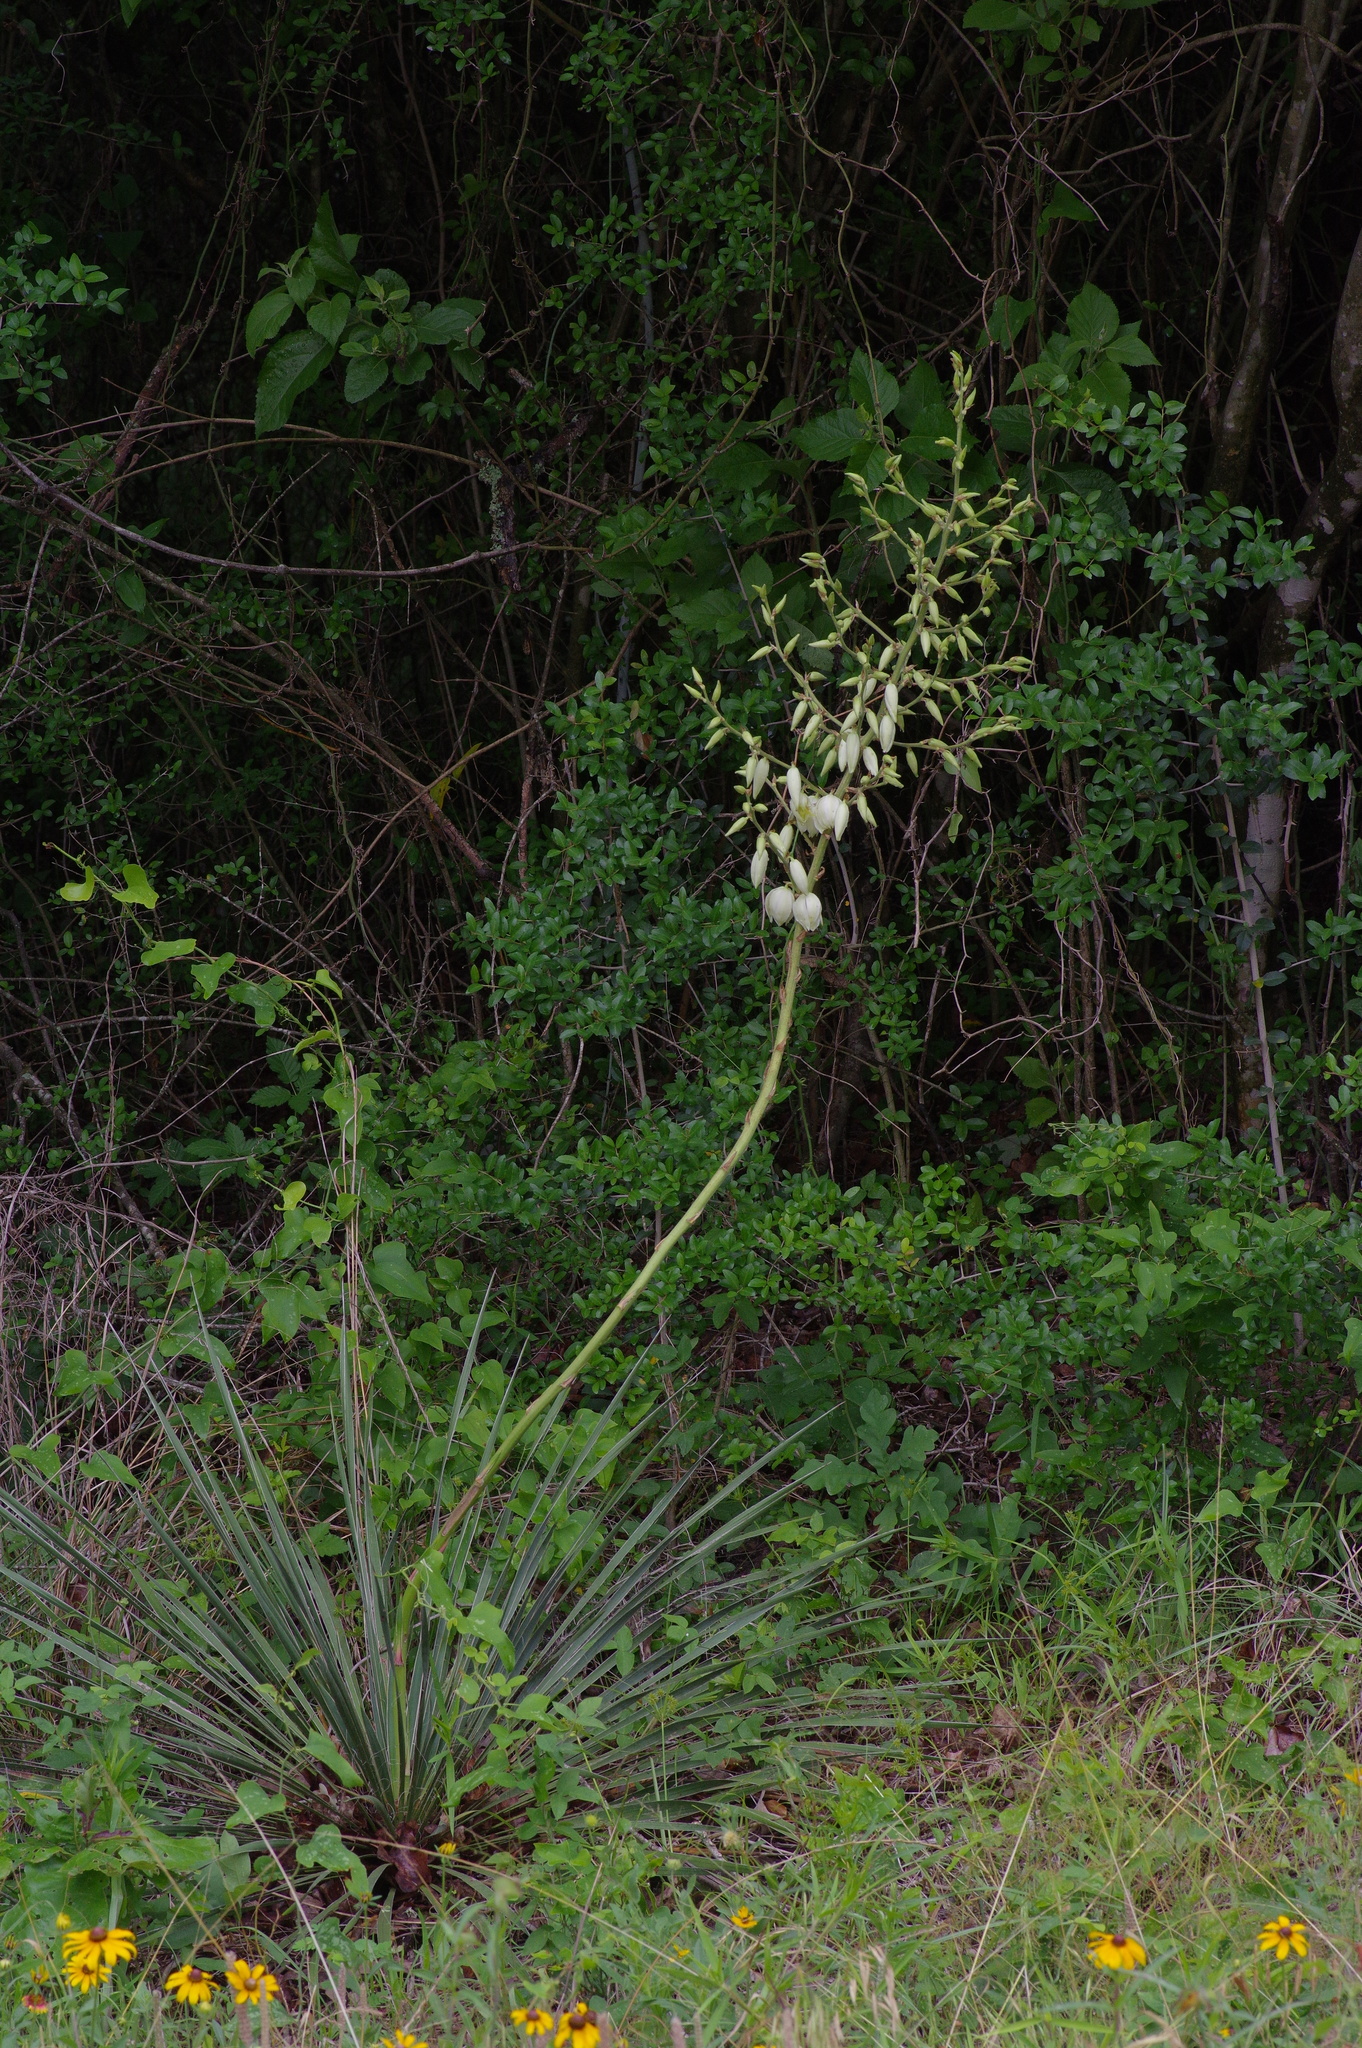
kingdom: Plantae
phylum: Tracheophyta
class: Liliopsida
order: Asparagales
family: Asparagaceae
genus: Yucca
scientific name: Yucca flaccida
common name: Adam's-needle
